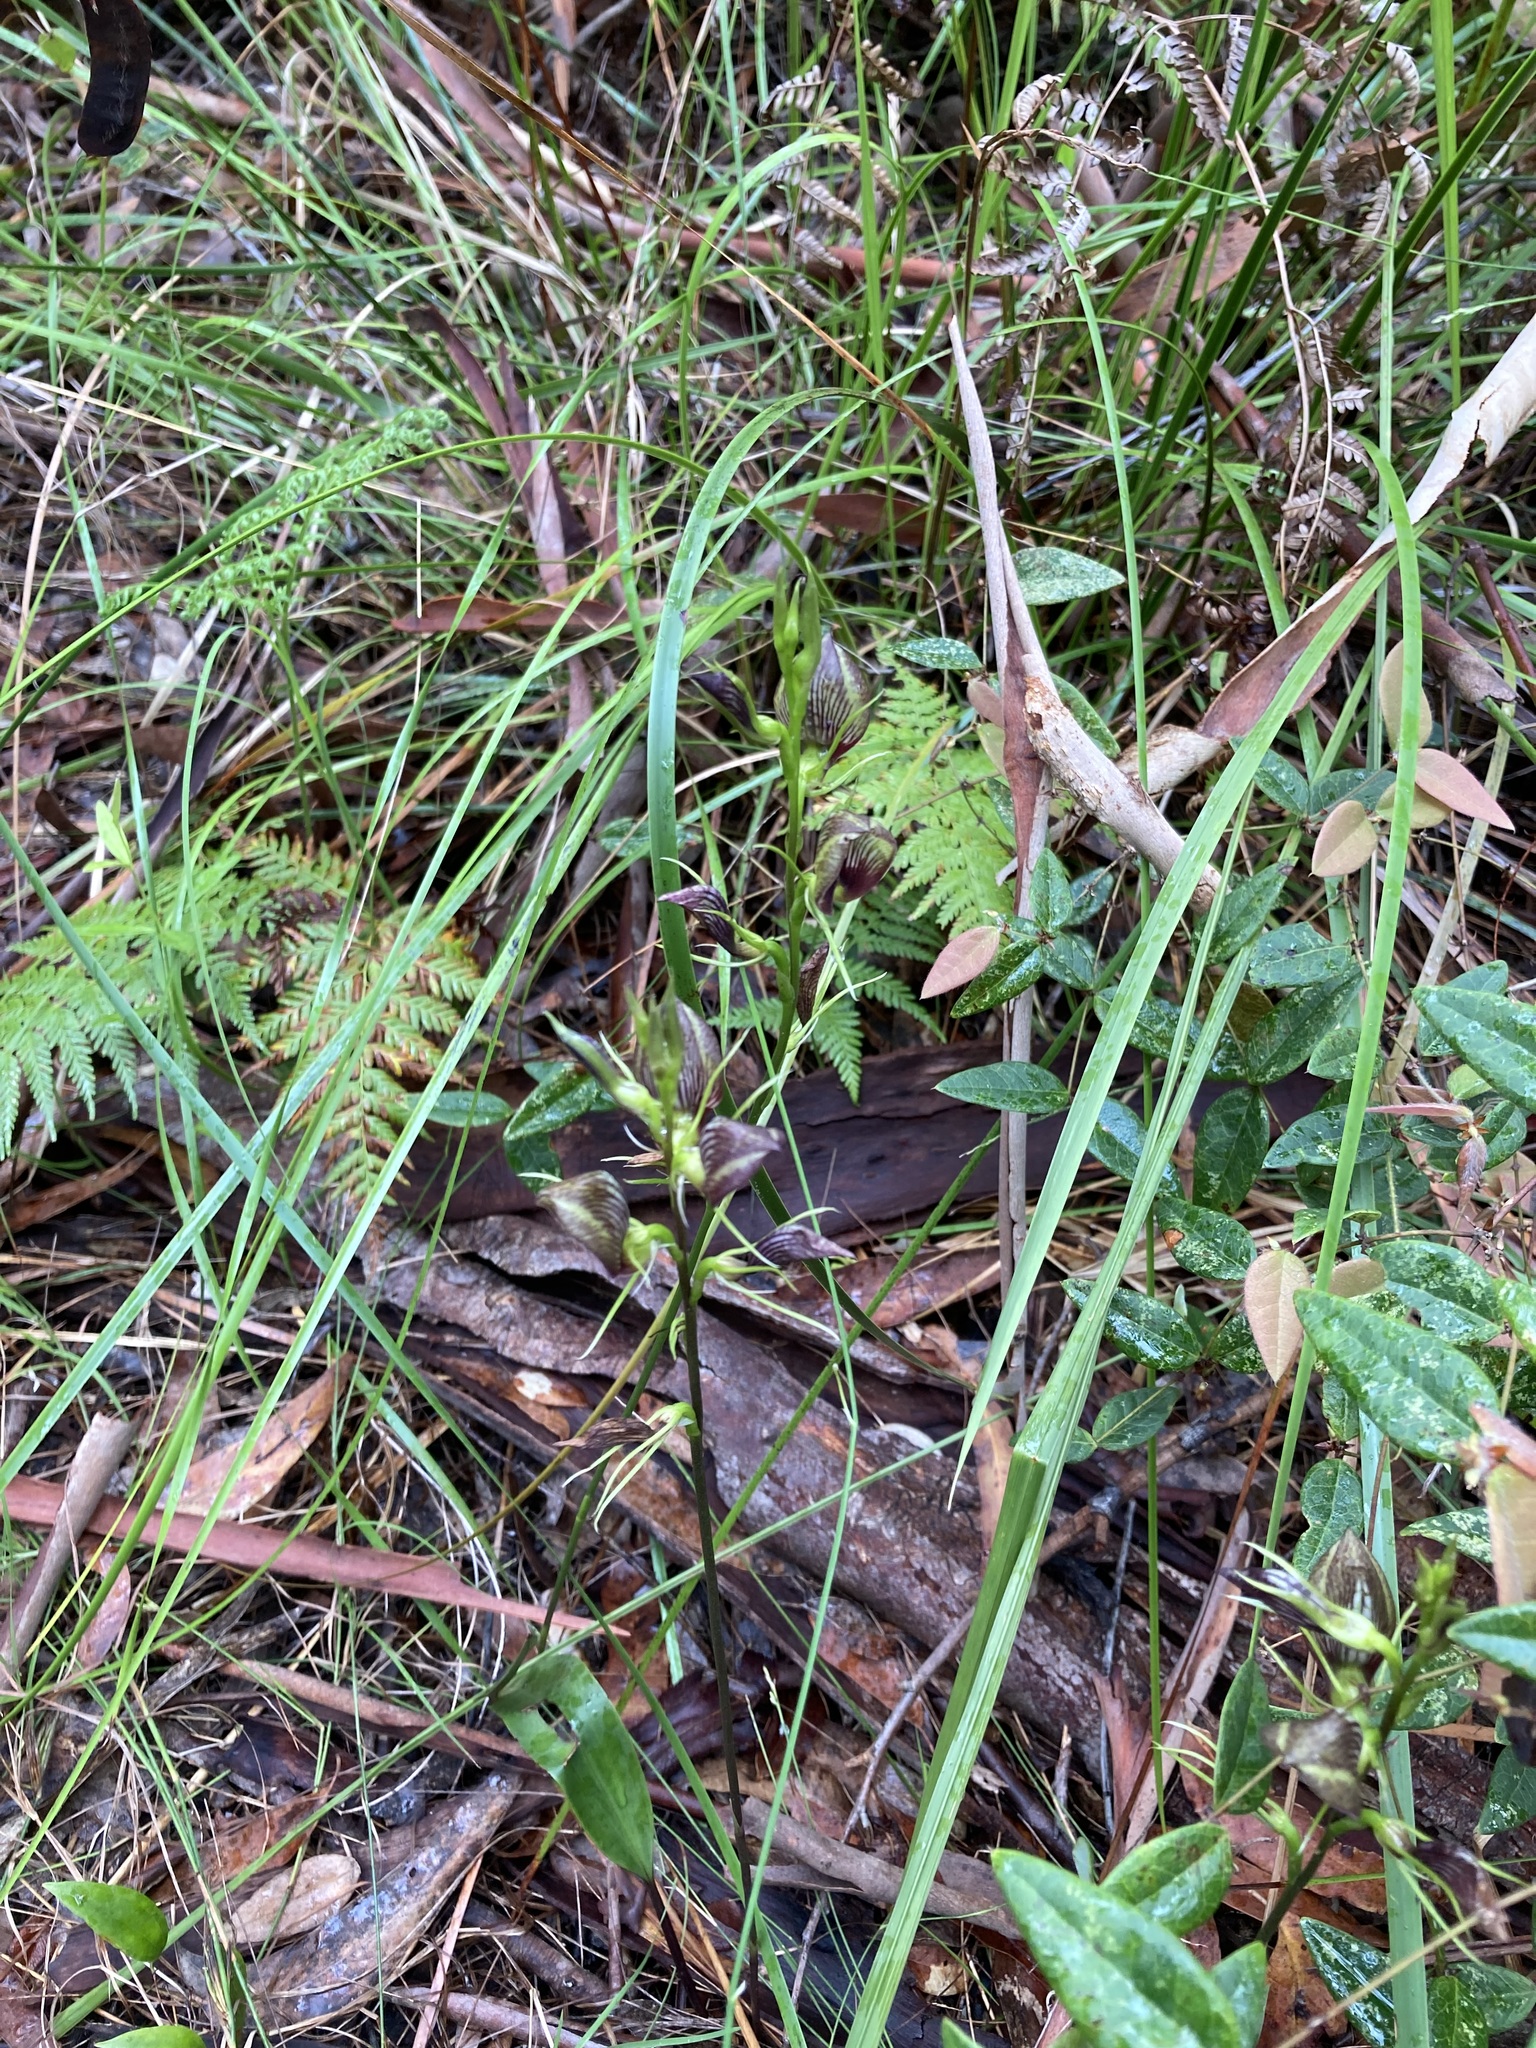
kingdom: Plantae
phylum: Tracheophyta
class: Liliopsida
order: Asparagales
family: Orchidaceae
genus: Cryptostylis
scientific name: Cryptostylis erecta
